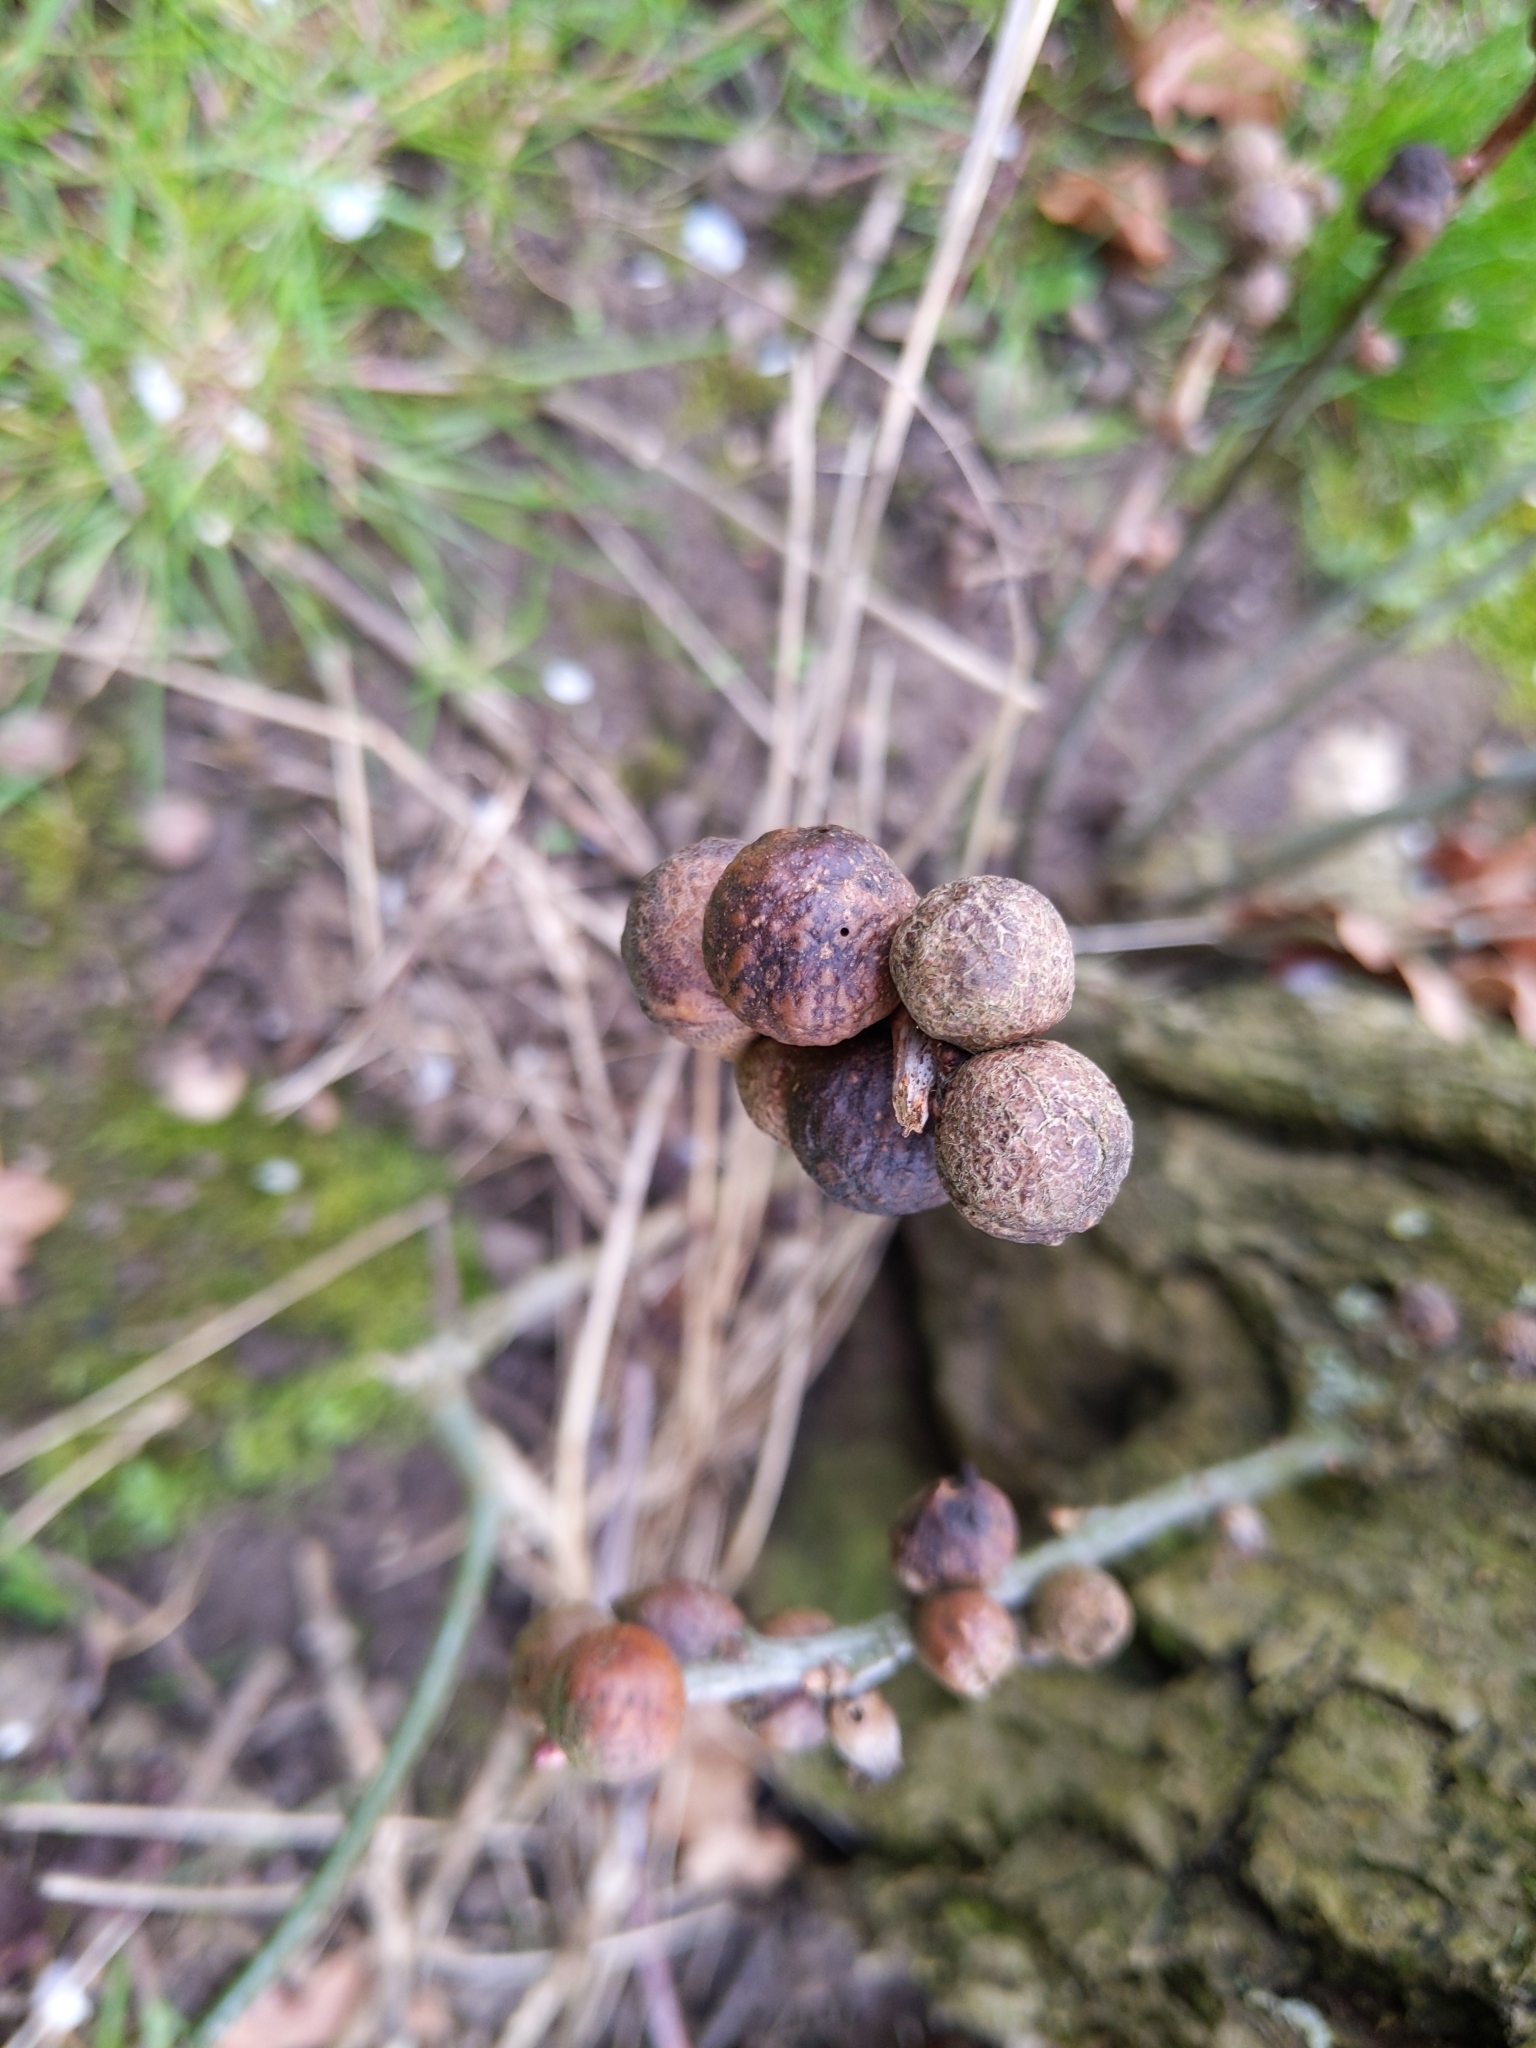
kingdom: Animalia
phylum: Arthropoda
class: Insecta
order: Hymenoptera
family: Cynipidae
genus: Andricus
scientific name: Andricus kollari
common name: Marble gall
